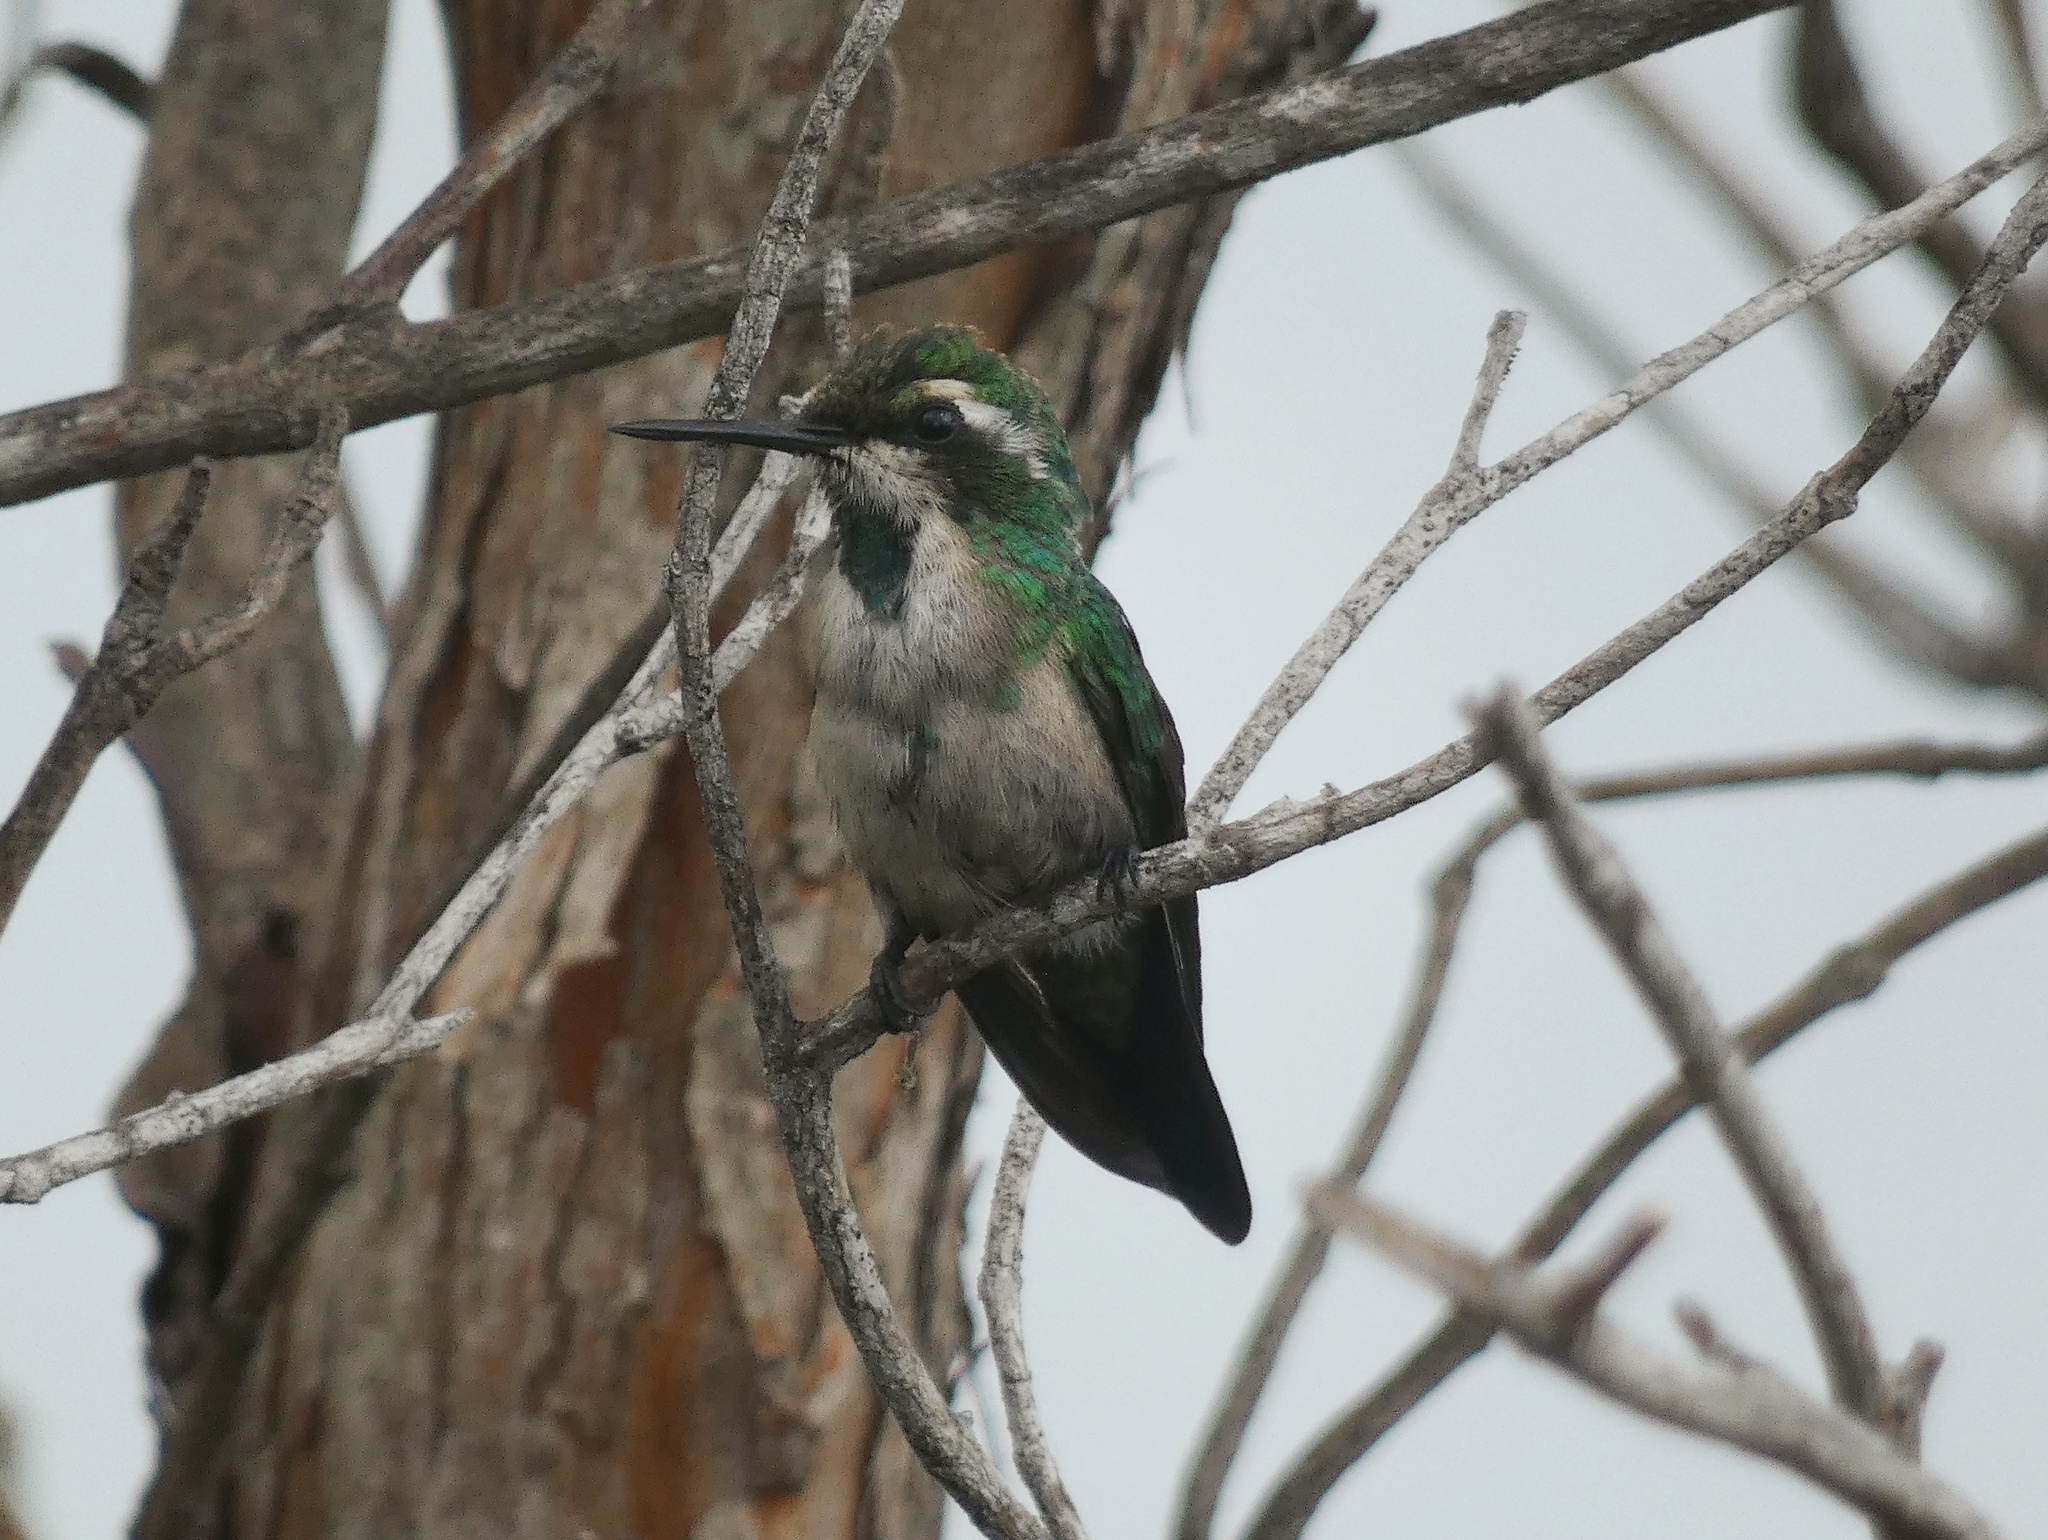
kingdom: Animalia
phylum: Chordata
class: Aves
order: Apodiformes
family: Trochilidae
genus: Chlorostilbon
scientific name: Chlorostilbon assimilis
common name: Garden emerald
